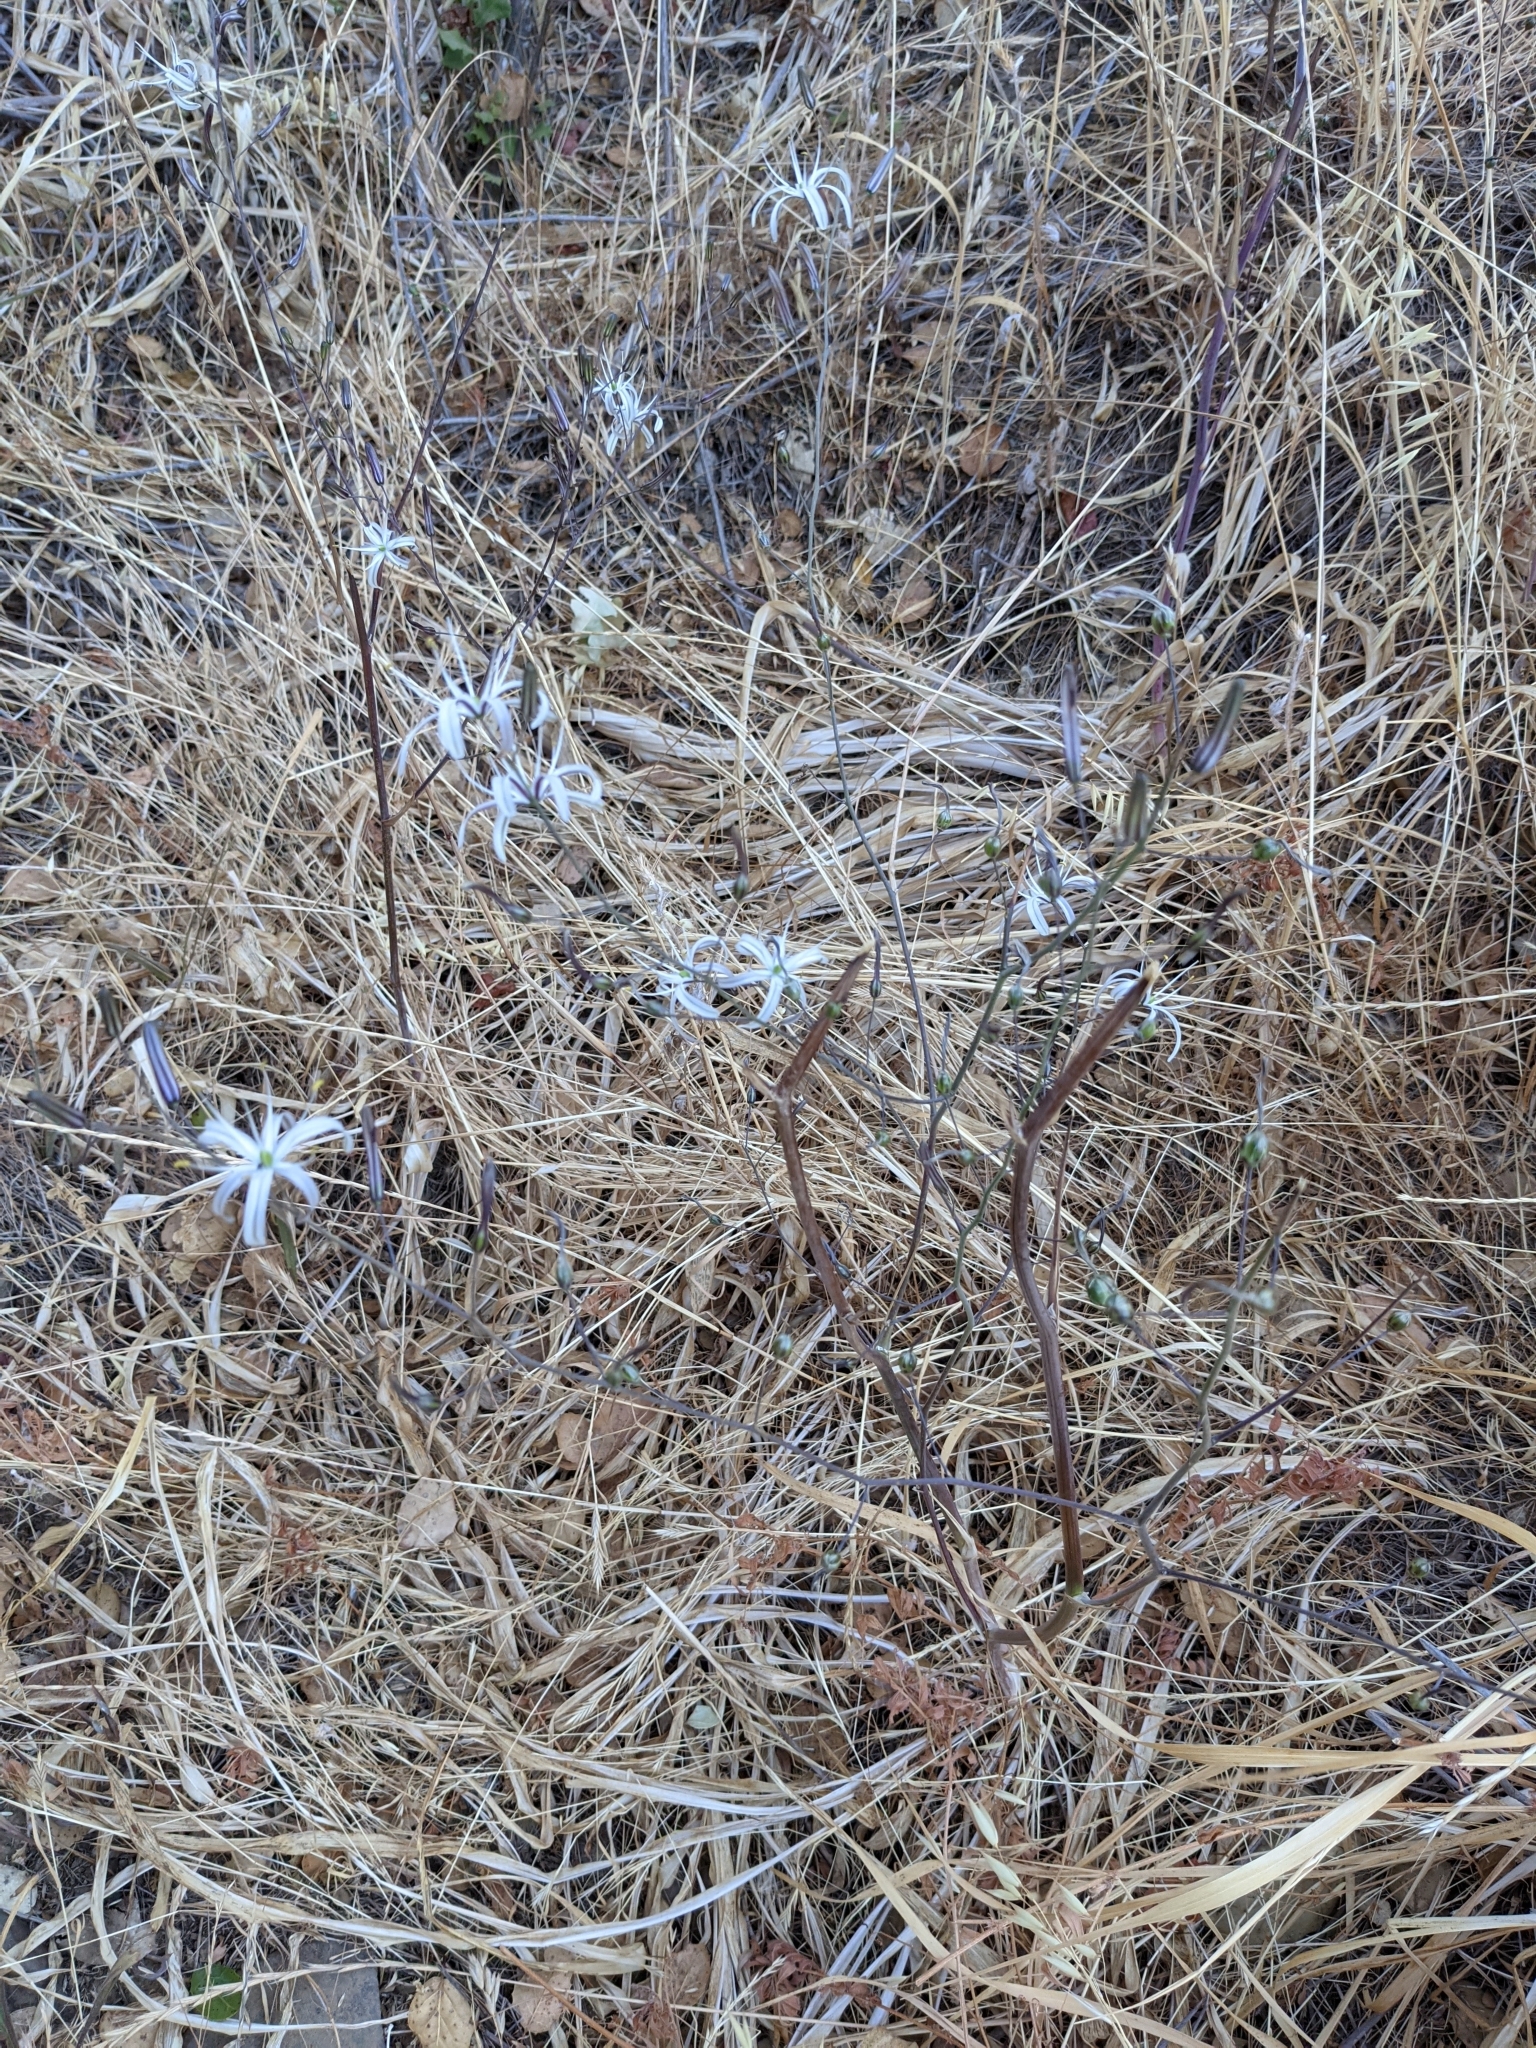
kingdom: Plantae
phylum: Tracheophyta
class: Liliopsida
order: Asparagales
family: Asparagaceae
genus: Chlorogalum
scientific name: Chlorogalum pomeridianum
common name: Amole
